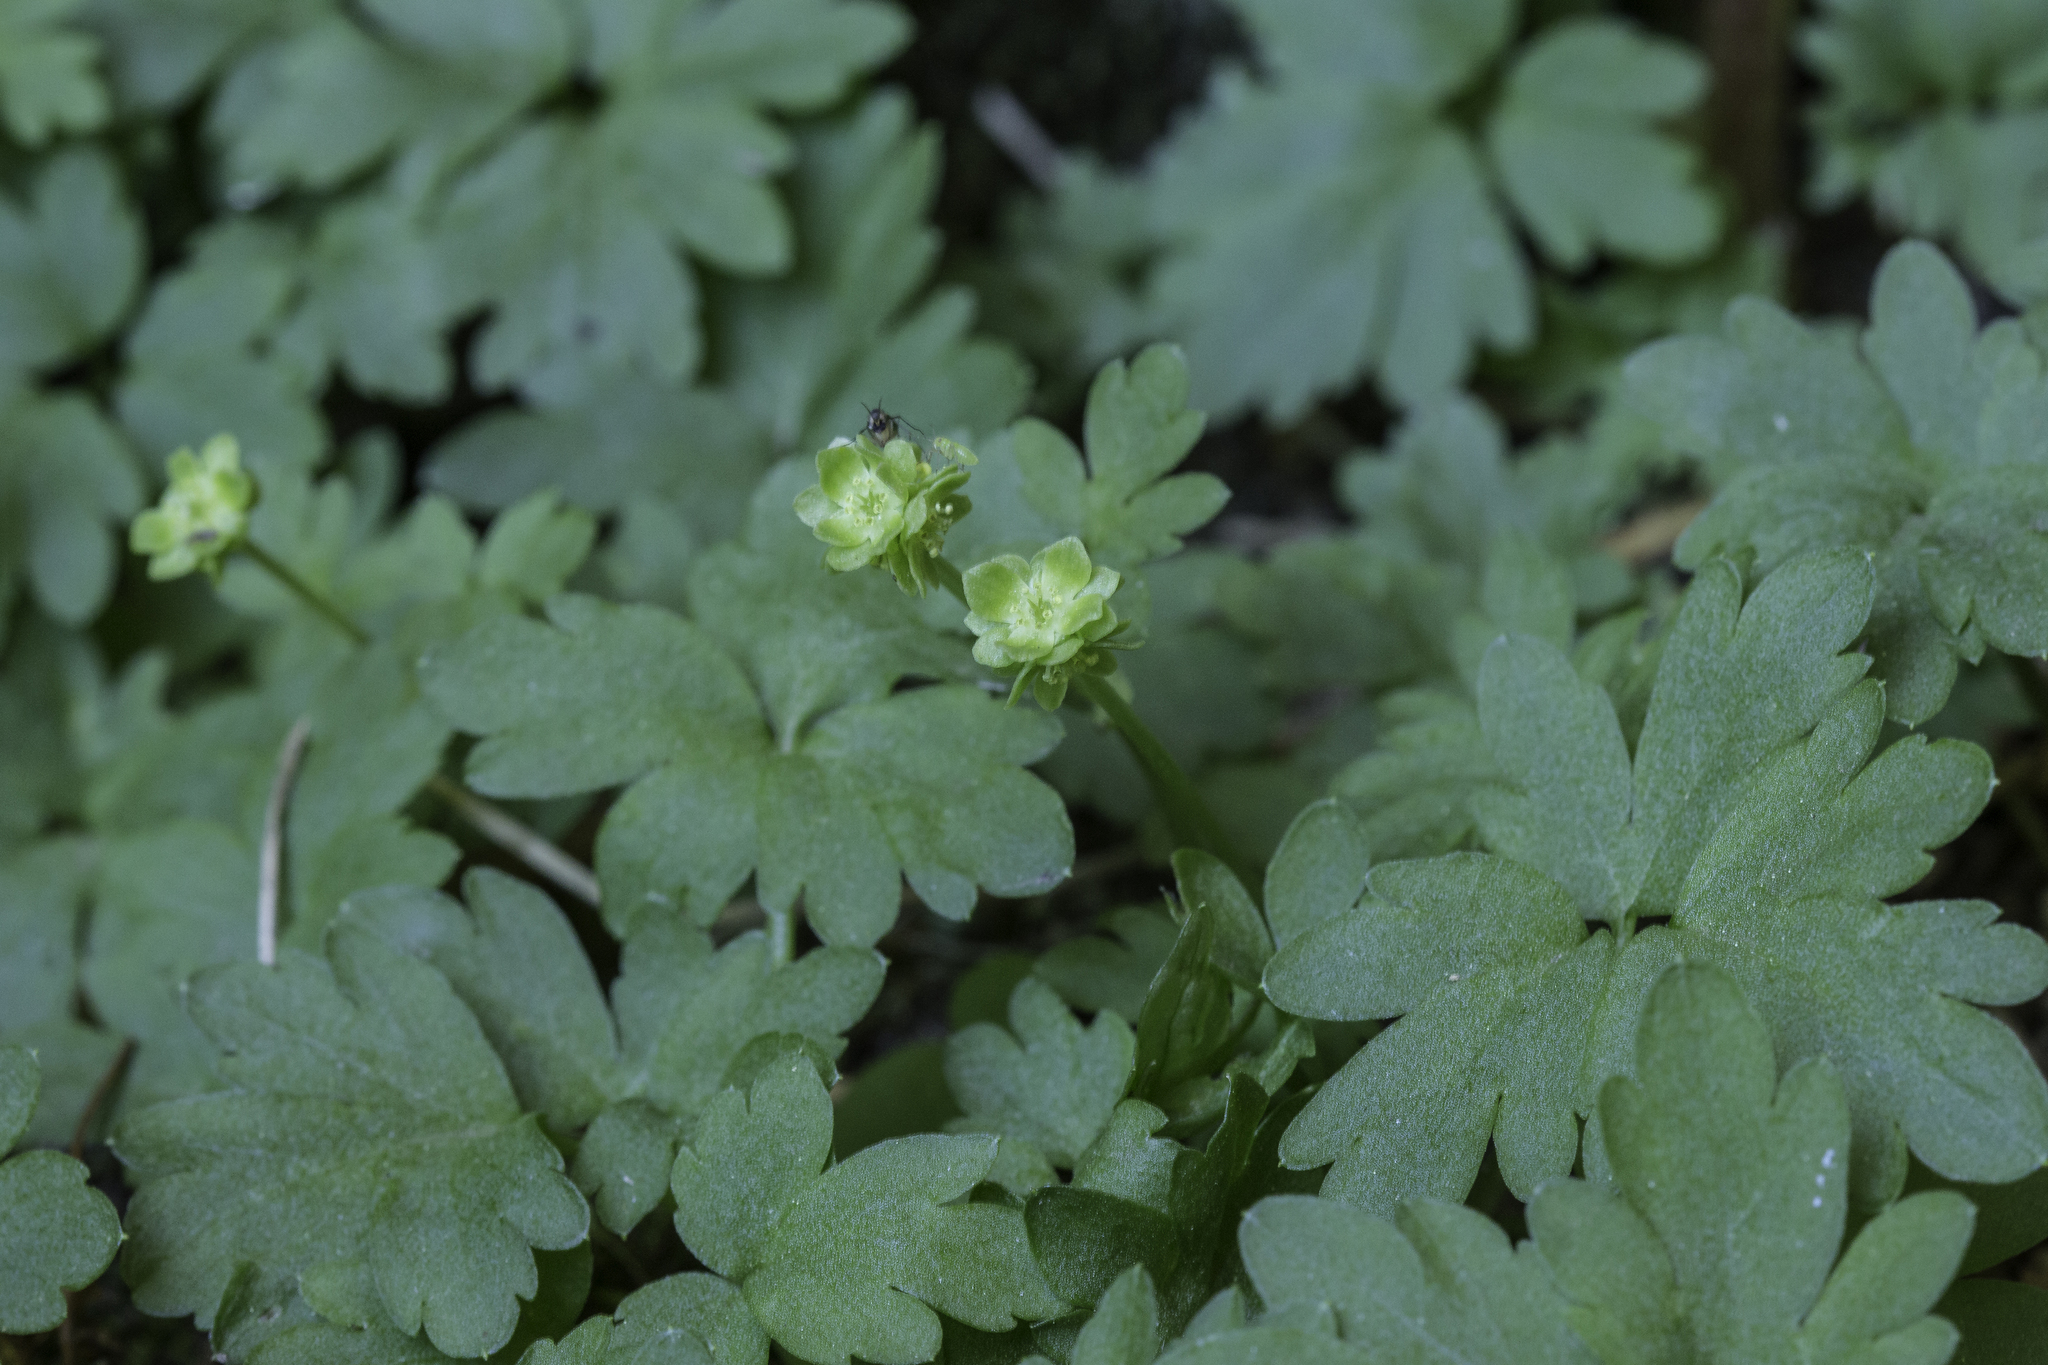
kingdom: Plantae
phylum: Tracheophyta
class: Magnoliopsida
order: Dipsacales
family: Viburnaceae
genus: Adoxa
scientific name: Adoxa moschatellina
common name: Moschatel
